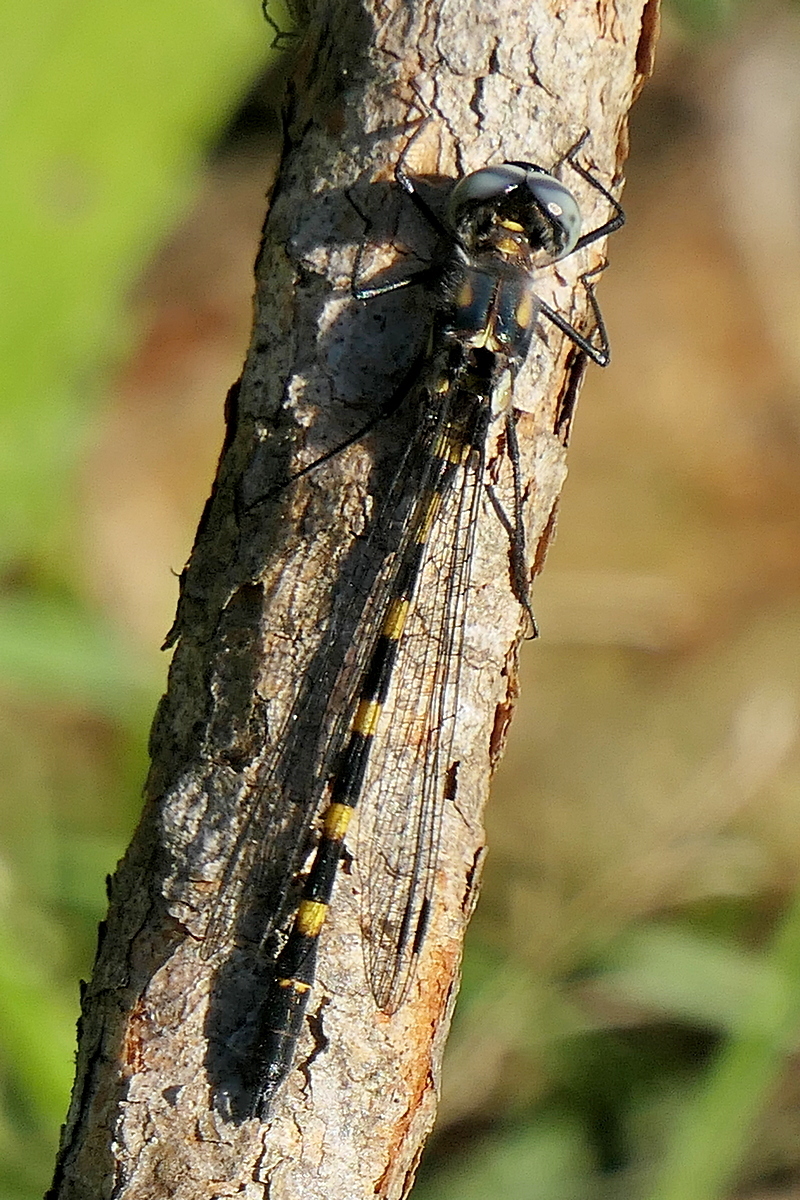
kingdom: Animalia
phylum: Arthropoda
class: Insecta
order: Odonata
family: Corduliidae
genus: Cordulephya
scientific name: Cordulephya pygmaea
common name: Common shutwing
